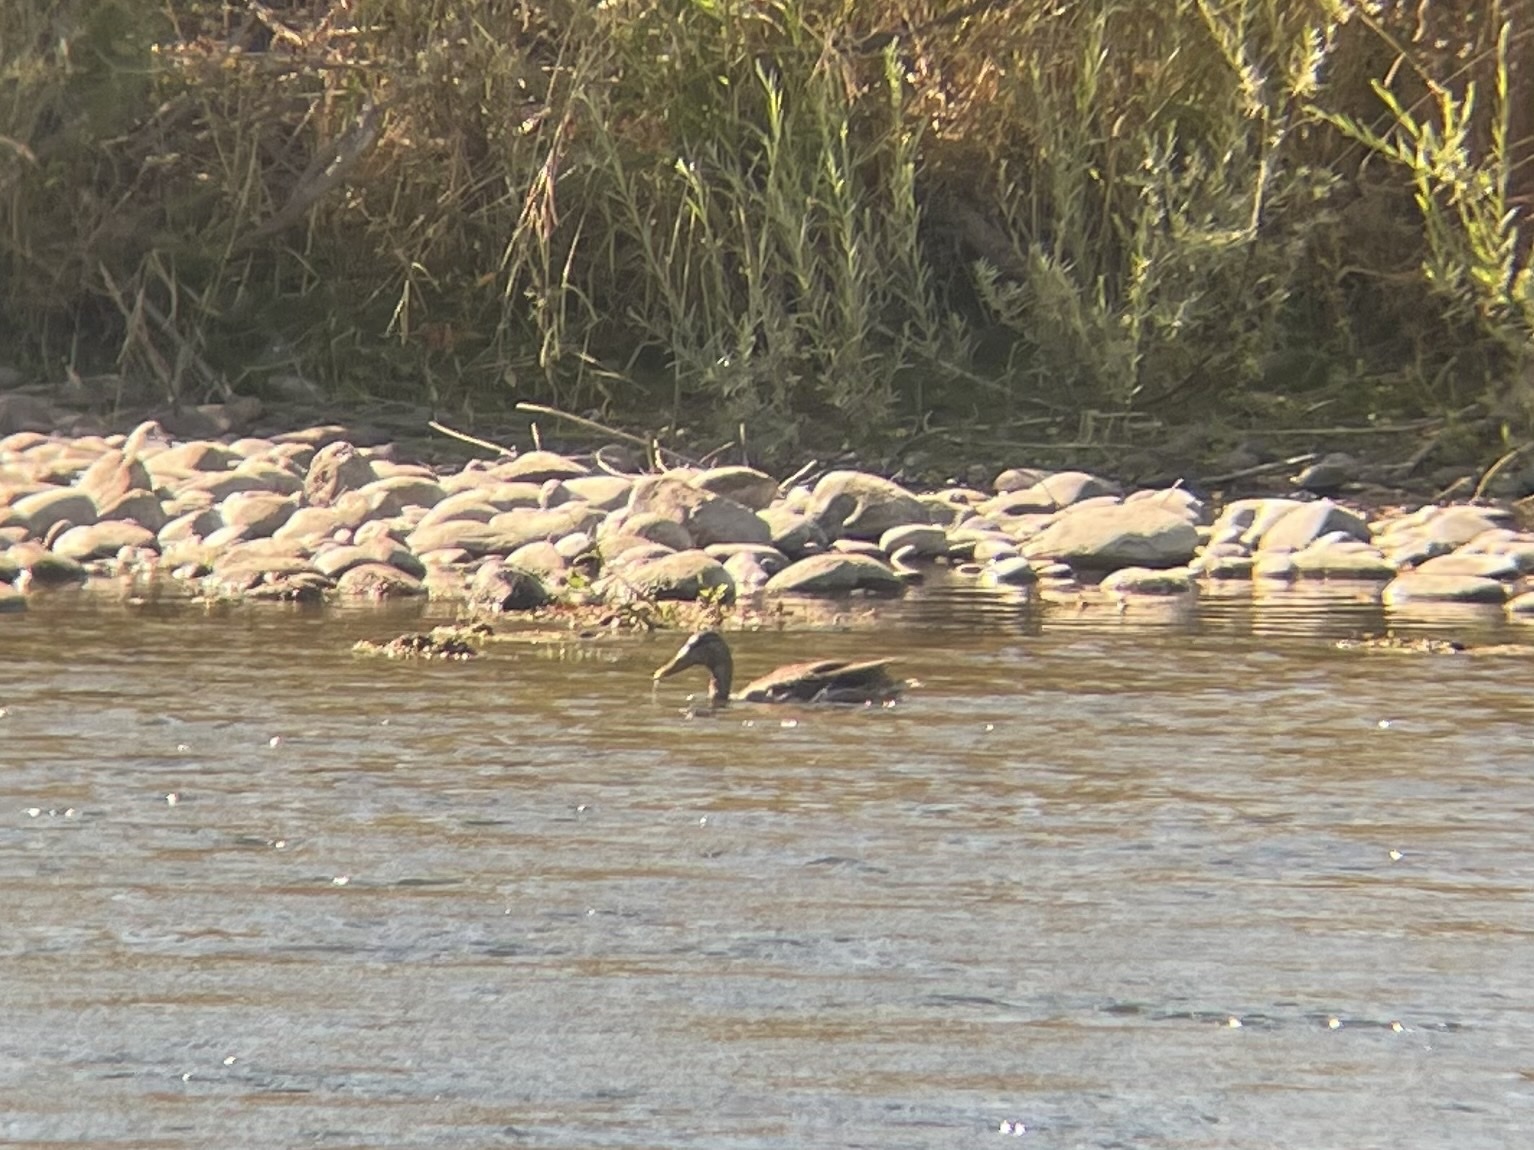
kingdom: Animalia
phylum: Chordata
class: Aves
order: Anseriformes
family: Anatidae
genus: Anas
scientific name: Anas platyrhynchos
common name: Mallard
